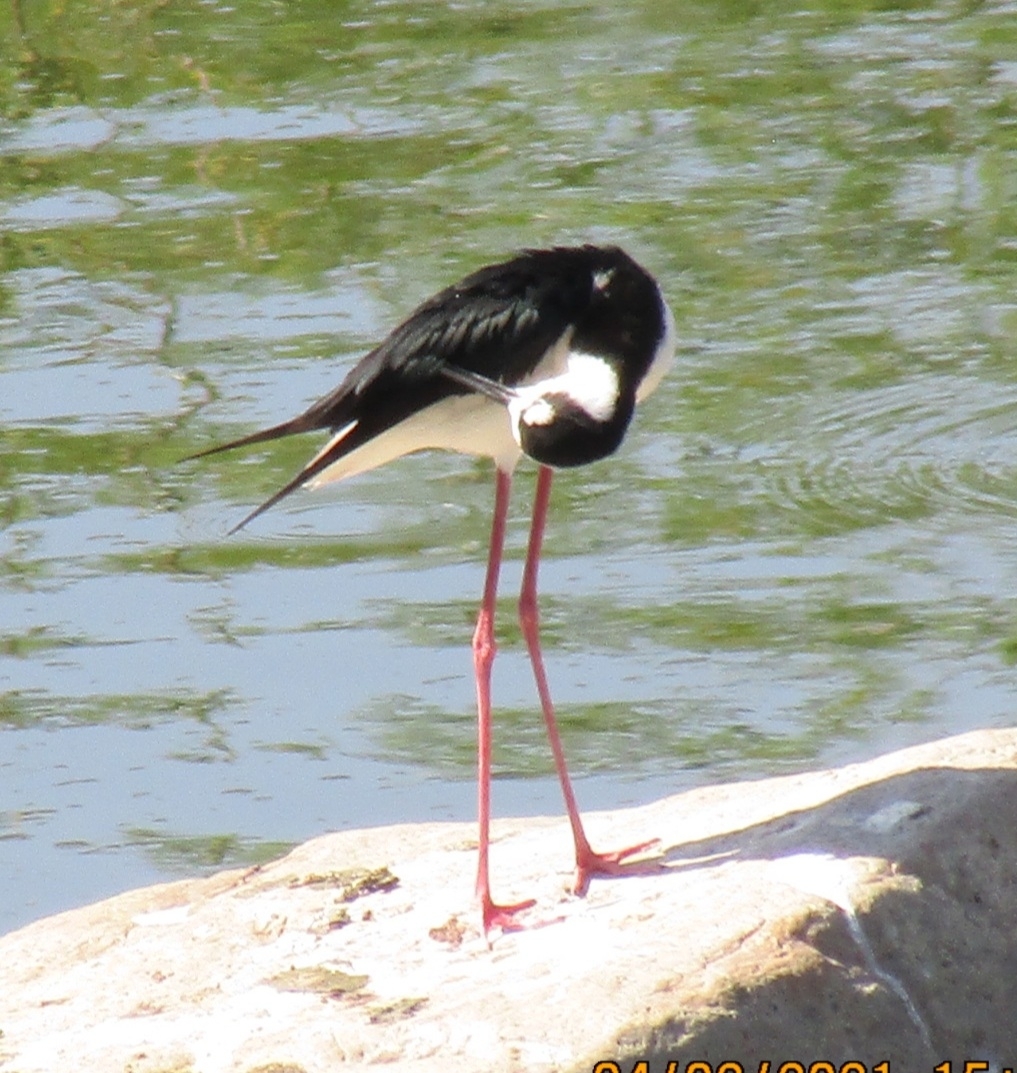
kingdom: Animalia
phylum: Chordata
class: Aves
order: Charadriiformes
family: Recurvirostridae
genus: Himantopus
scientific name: Himantopus mexicanus
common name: Black-necked stilt
